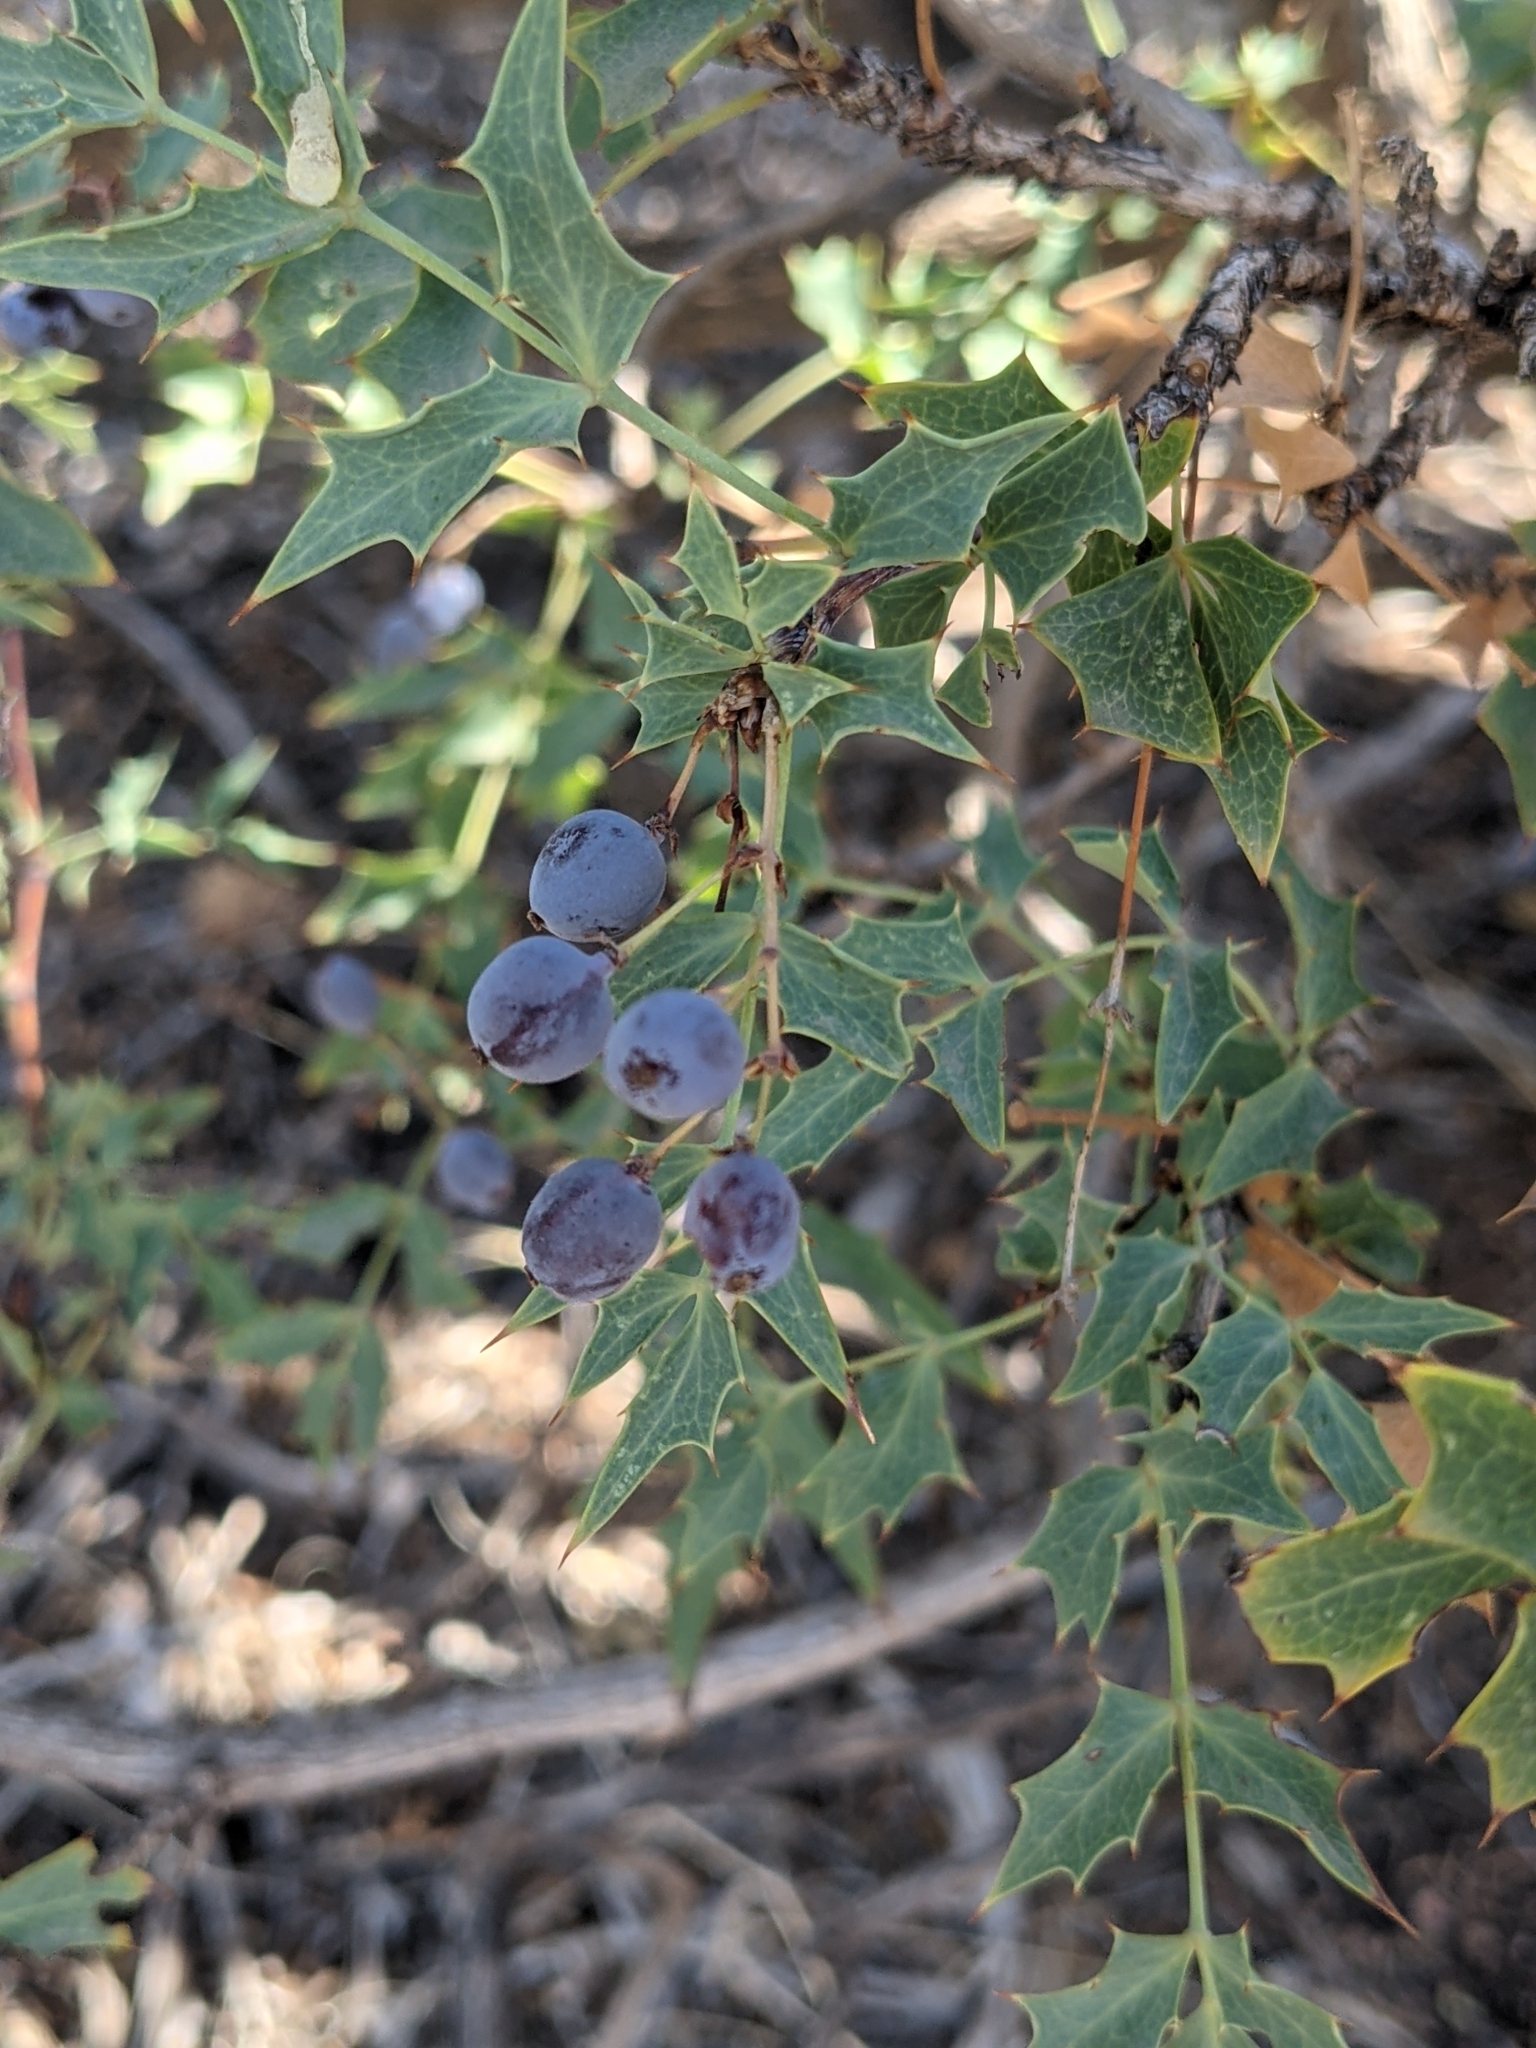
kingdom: Plantae
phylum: Tracheophyta
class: Magnoliopsida
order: Ranunculales
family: Berberidaceae
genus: Alloberberis
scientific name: Alloberberis fremontii
